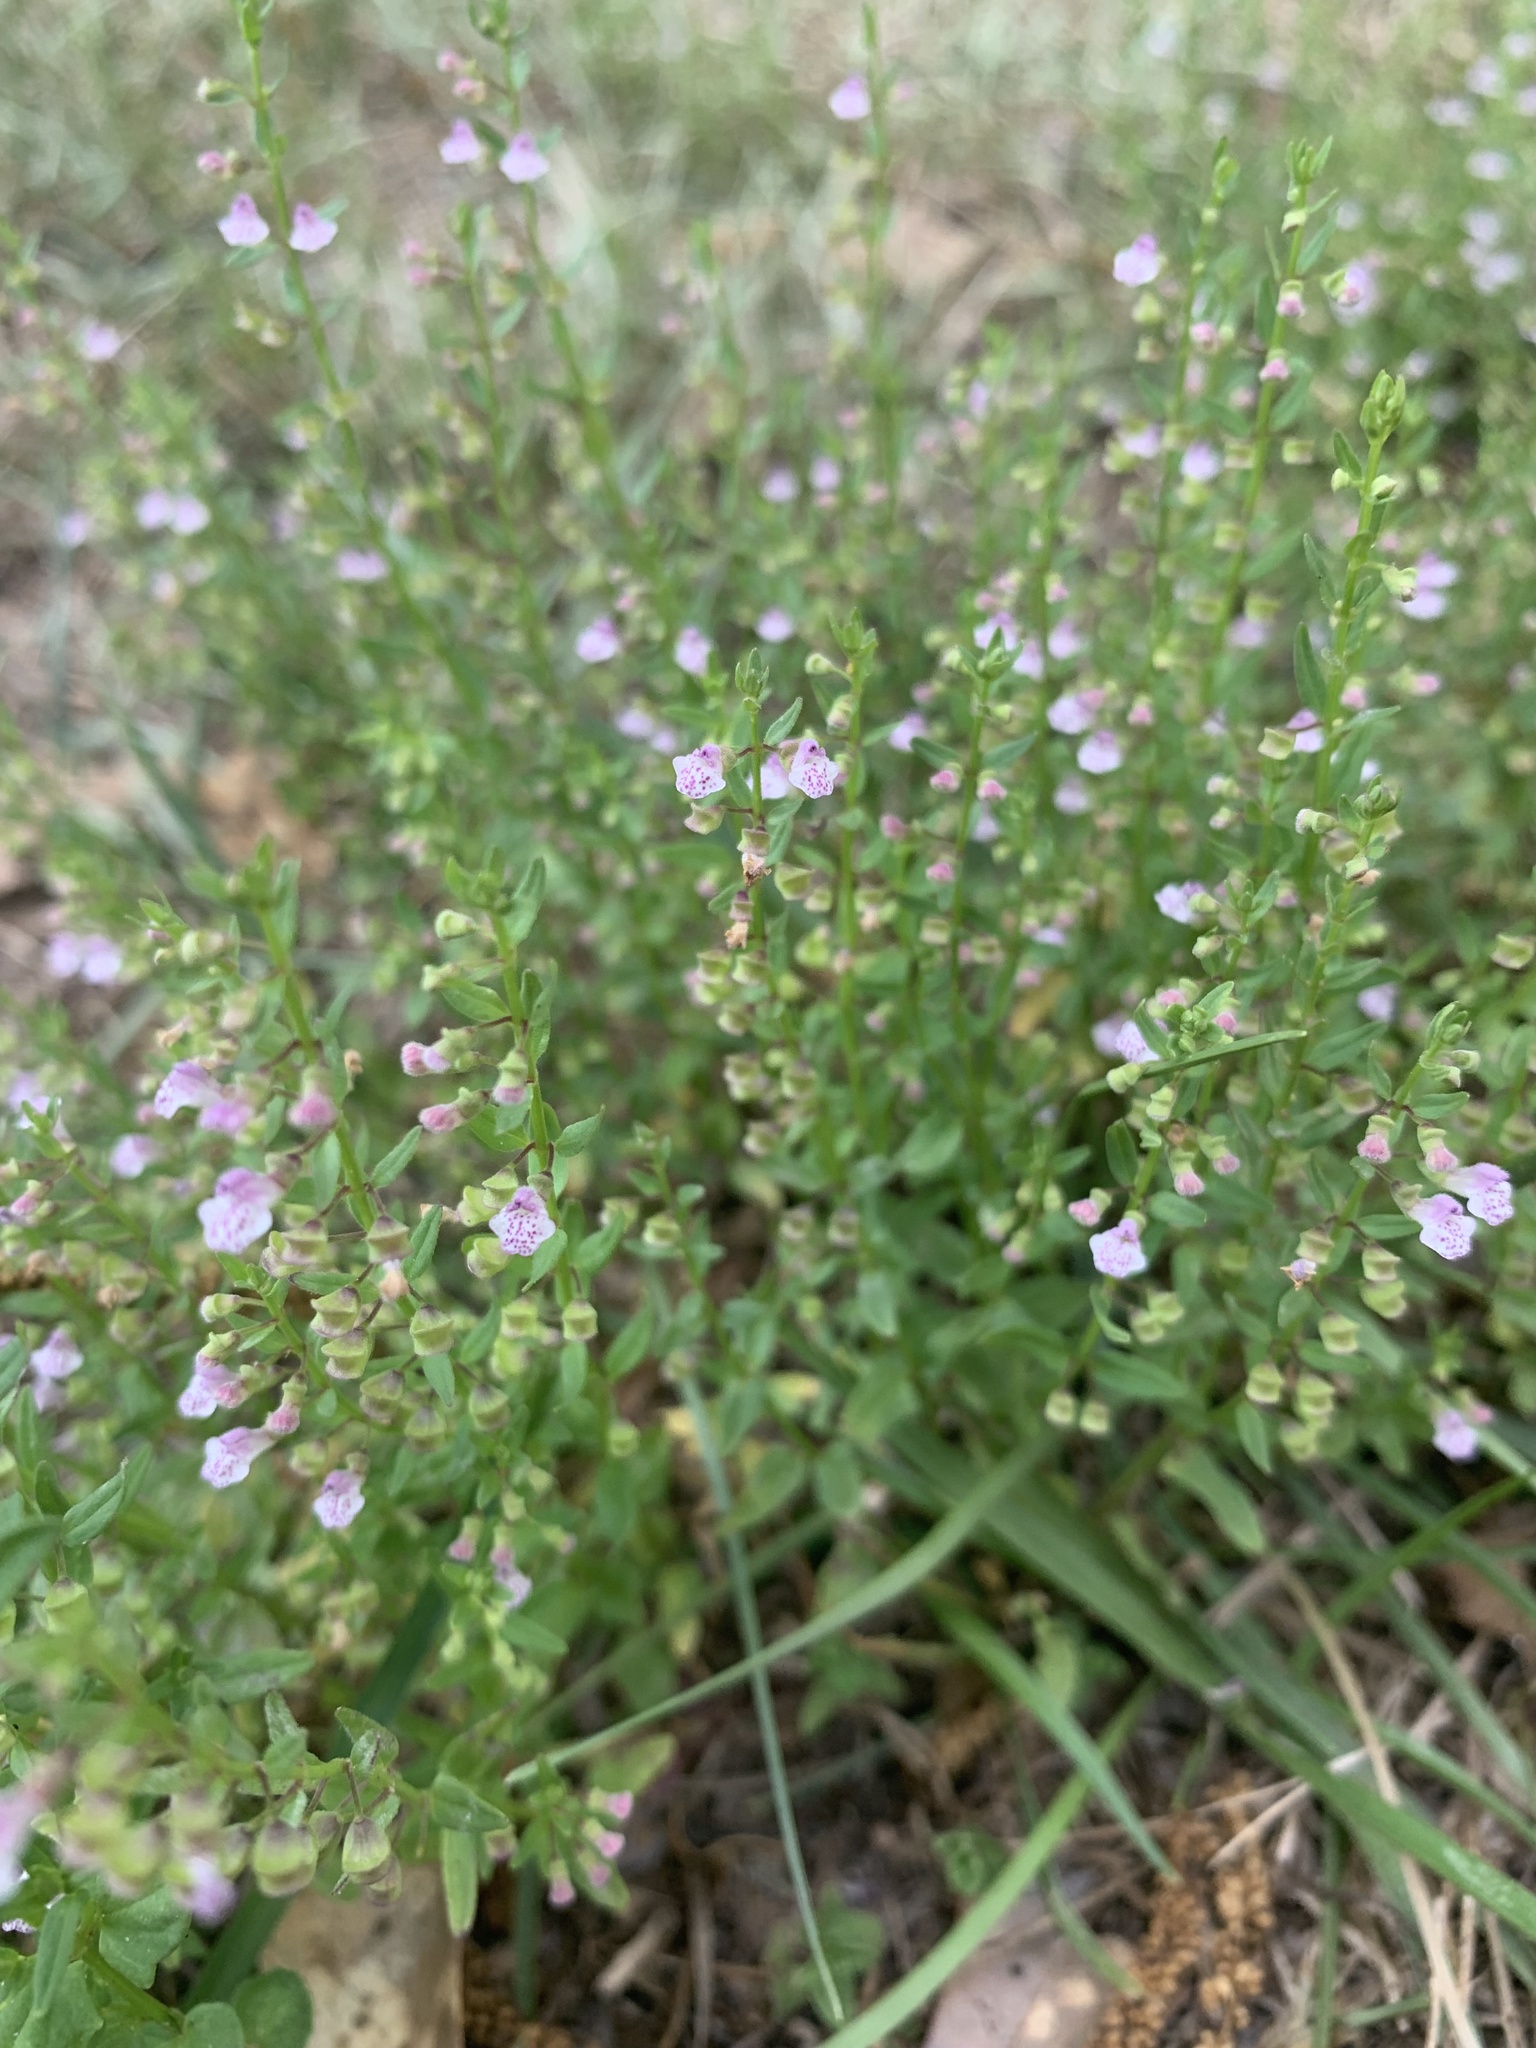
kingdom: Plantae
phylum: Tracheophyta
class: Magnoliopsida
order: Lamiales
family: Lamiaceae
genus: Scutellaria
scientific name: Scutellaria racemosa
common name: South american skullcap
